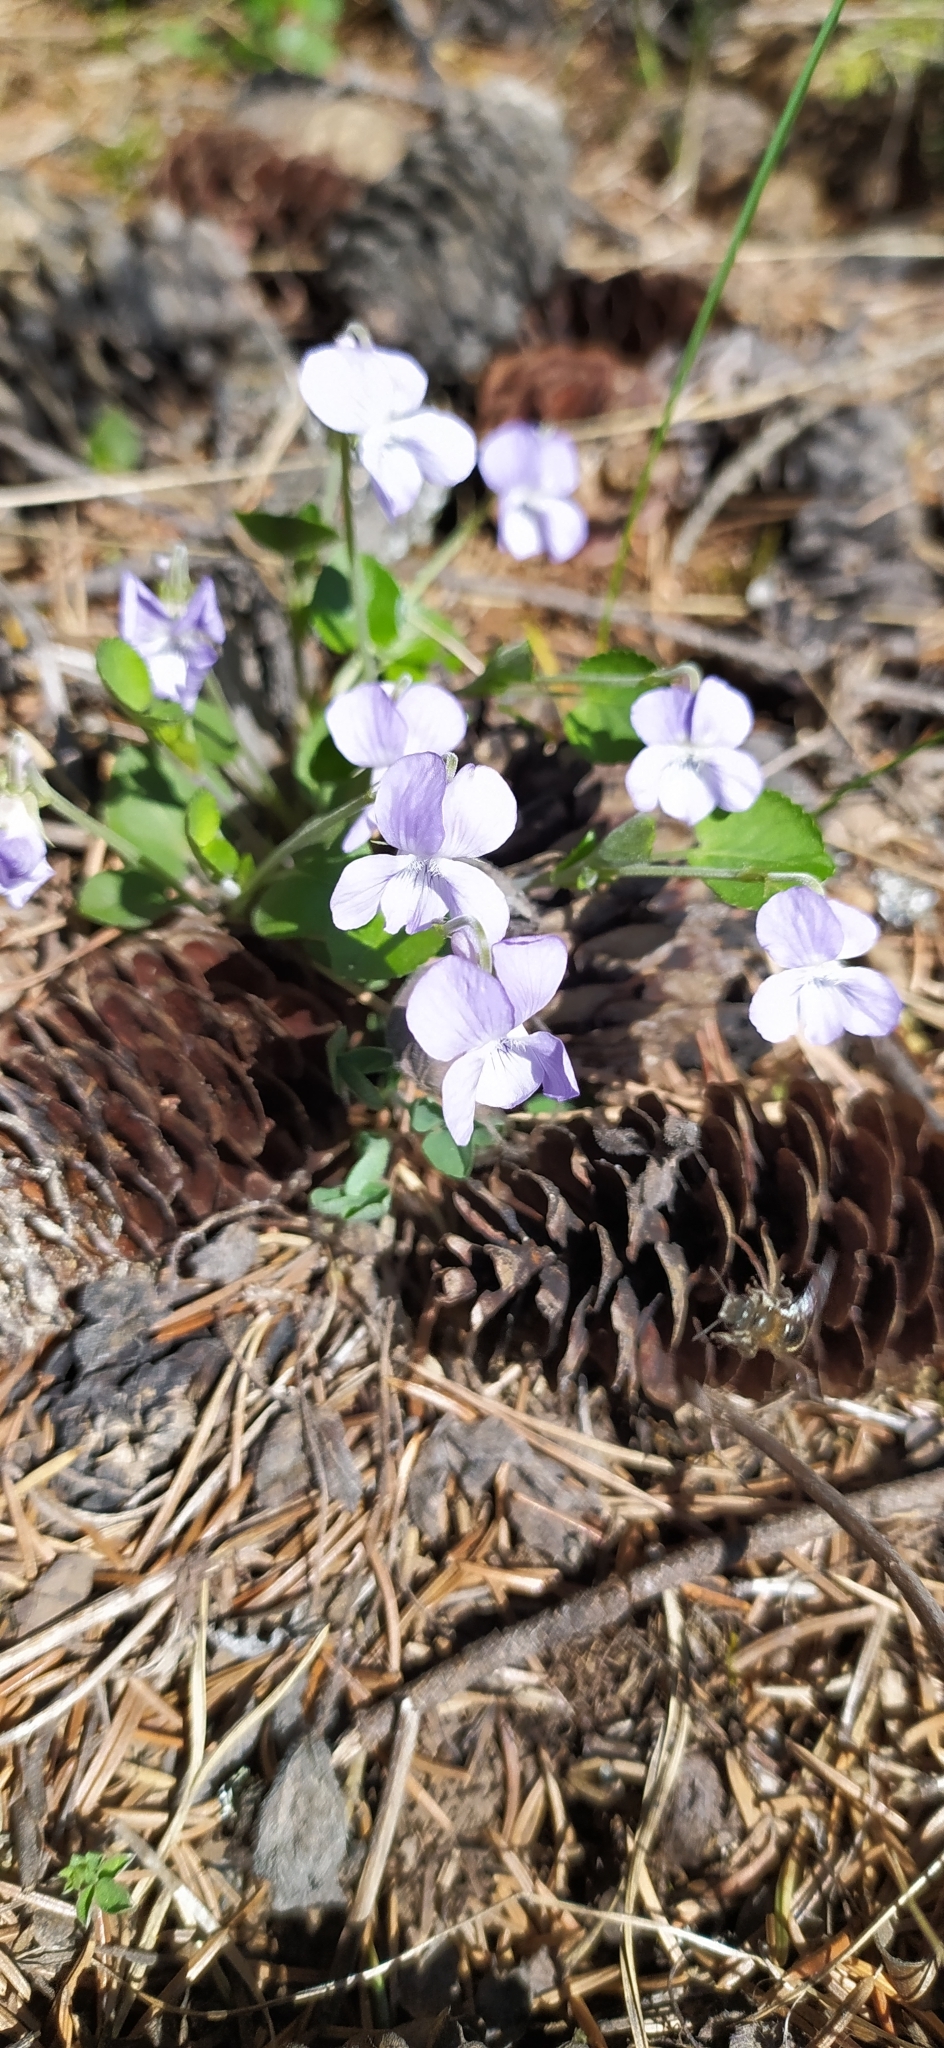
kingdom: Plantae
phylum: Tracheophyta
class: Magnoliopsida
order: Malpighiales
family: Violaceae
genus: Viola
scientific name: Viola rupestris
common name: Teesdale violet
